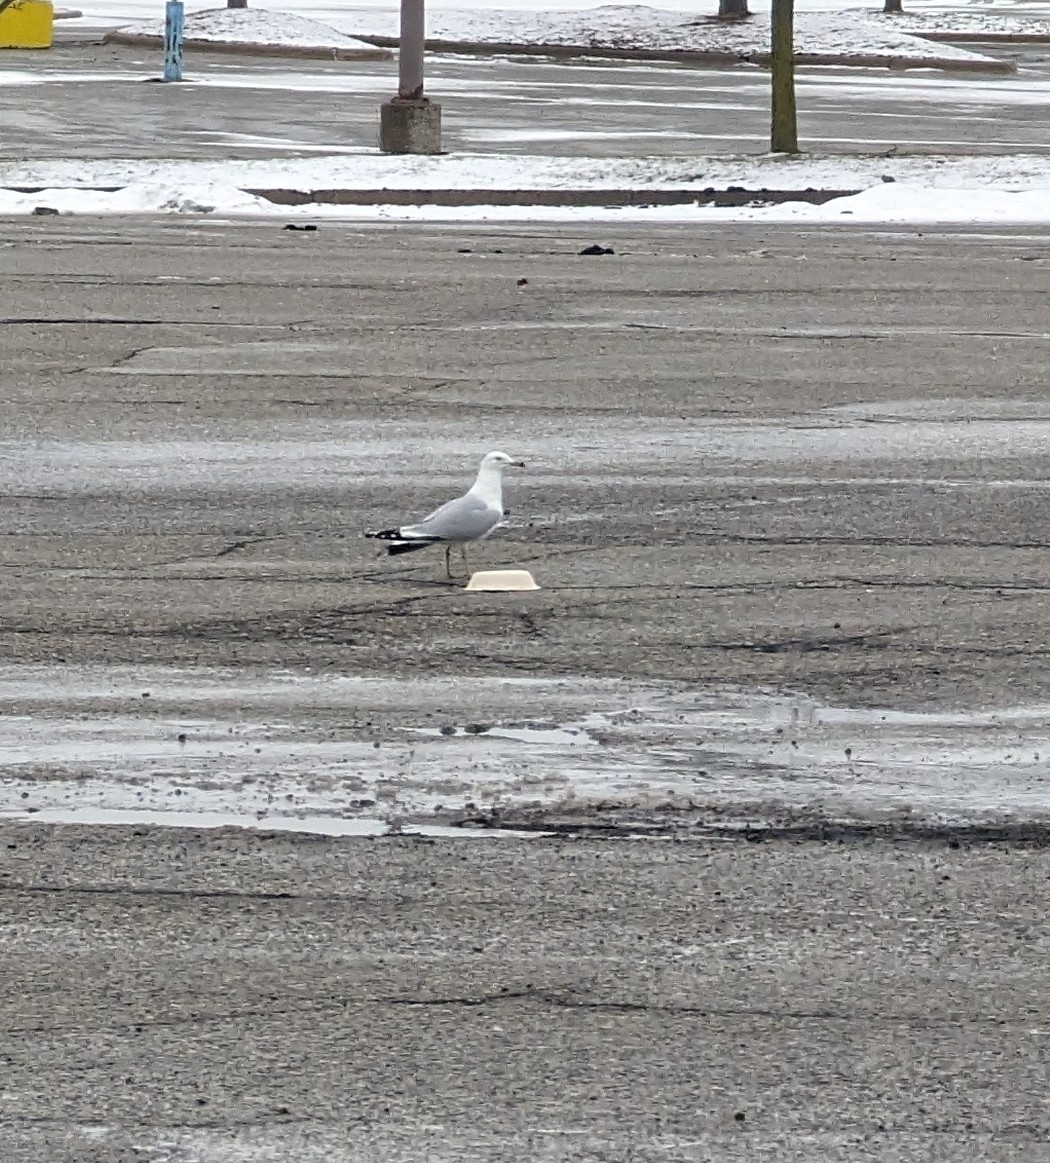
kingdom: Animalia
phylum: Chordata
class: Aves
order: Charadriiformes
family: Laridae
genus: Larus
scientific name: Larus delawarensis
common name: Ring-billed gull
